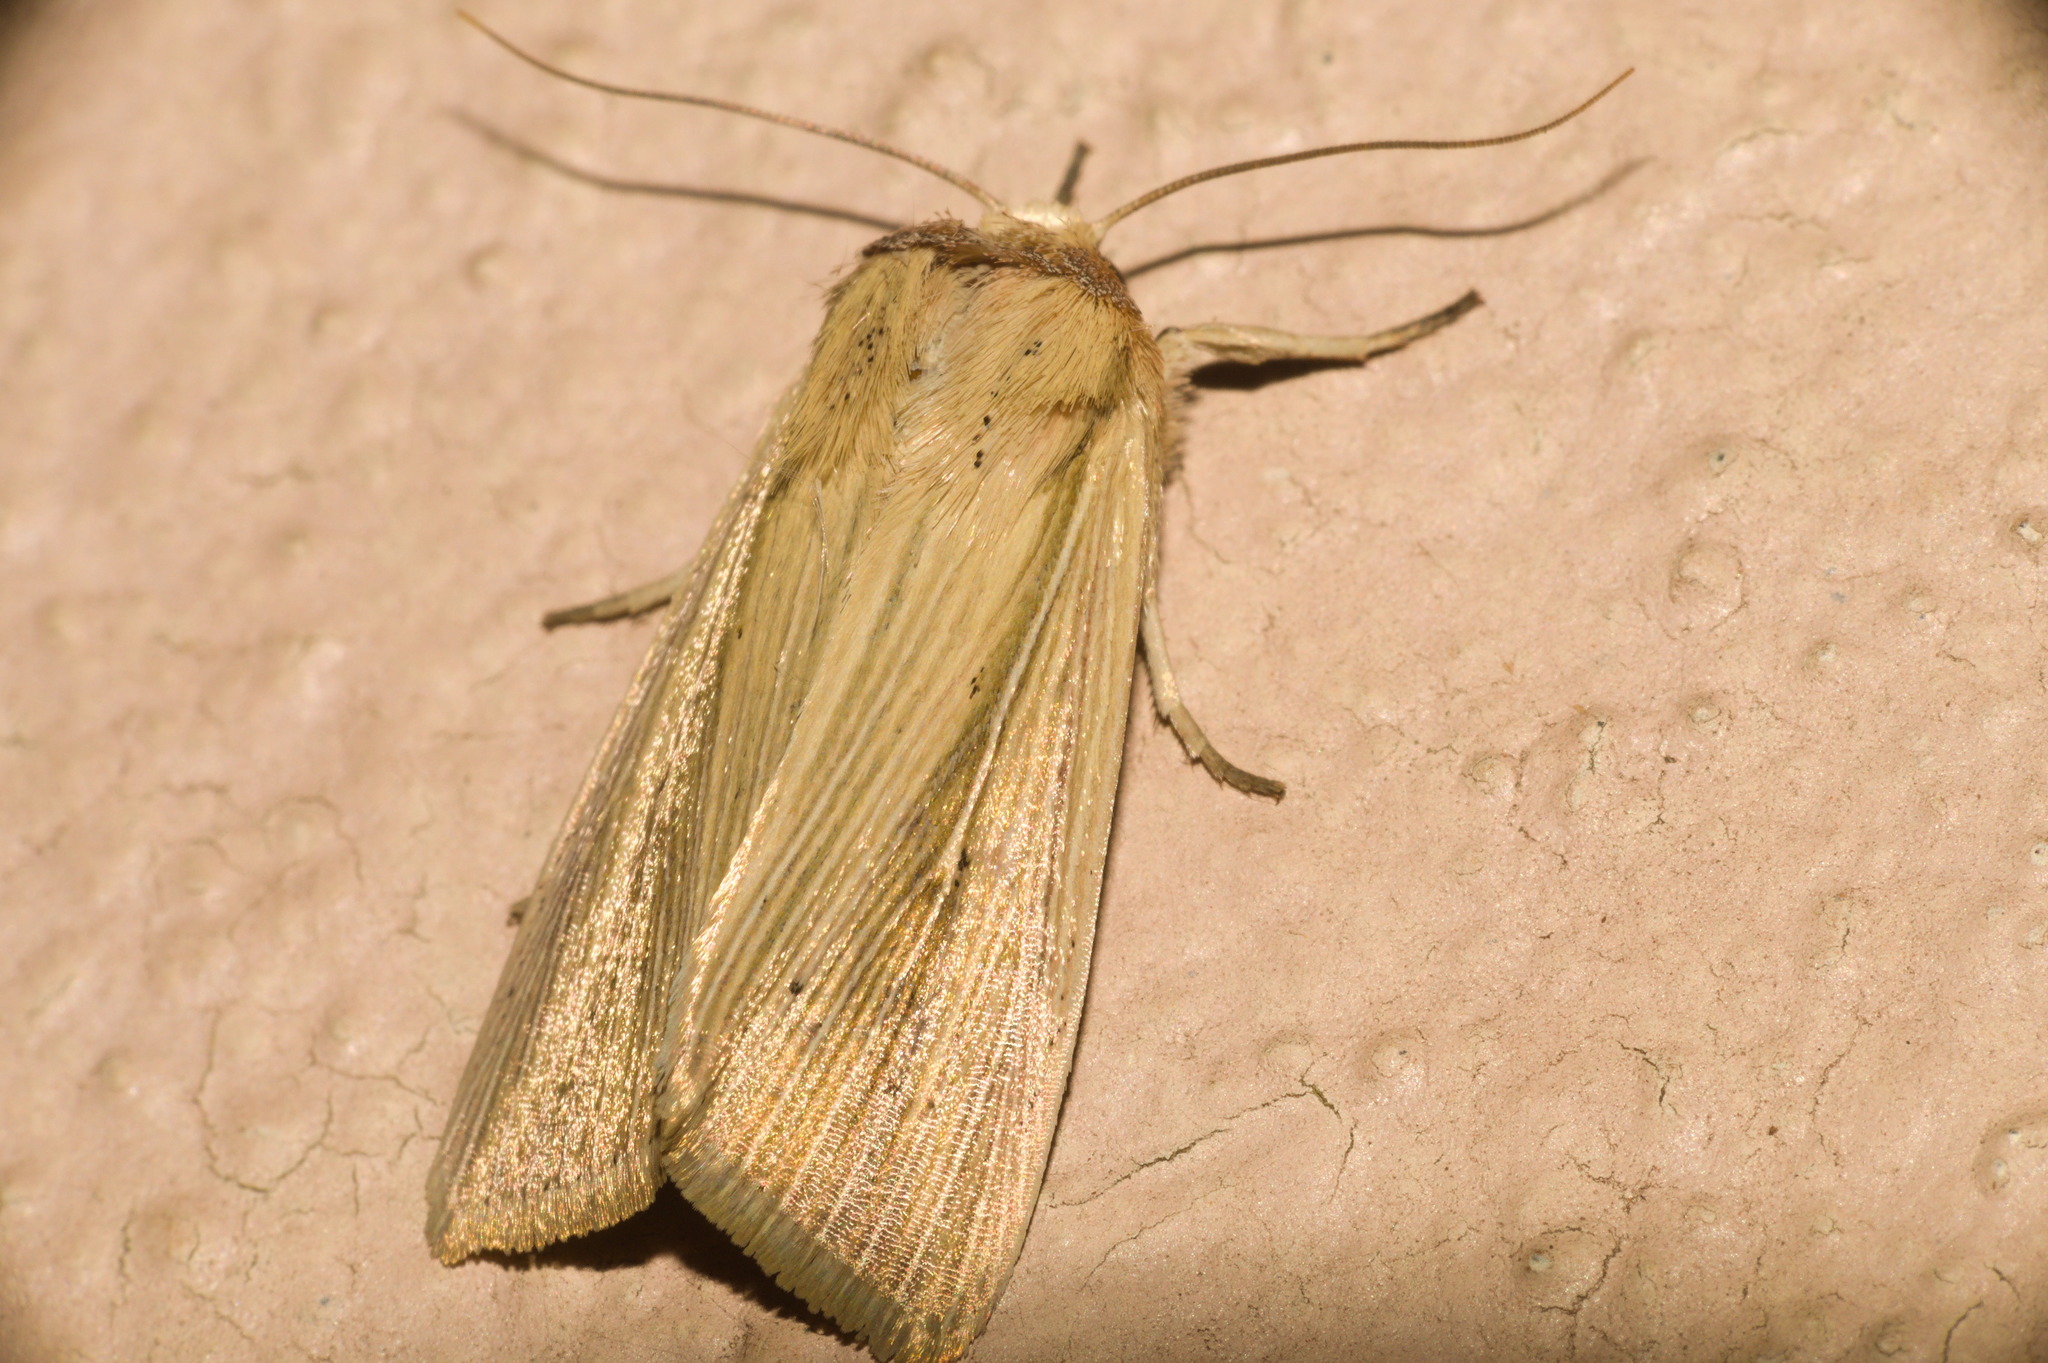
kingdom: Animalia
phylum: Arthropoda
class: Insecta
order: Lepidoptera
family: Noctuidae
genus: Leucania
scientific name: Leucania humidicola
